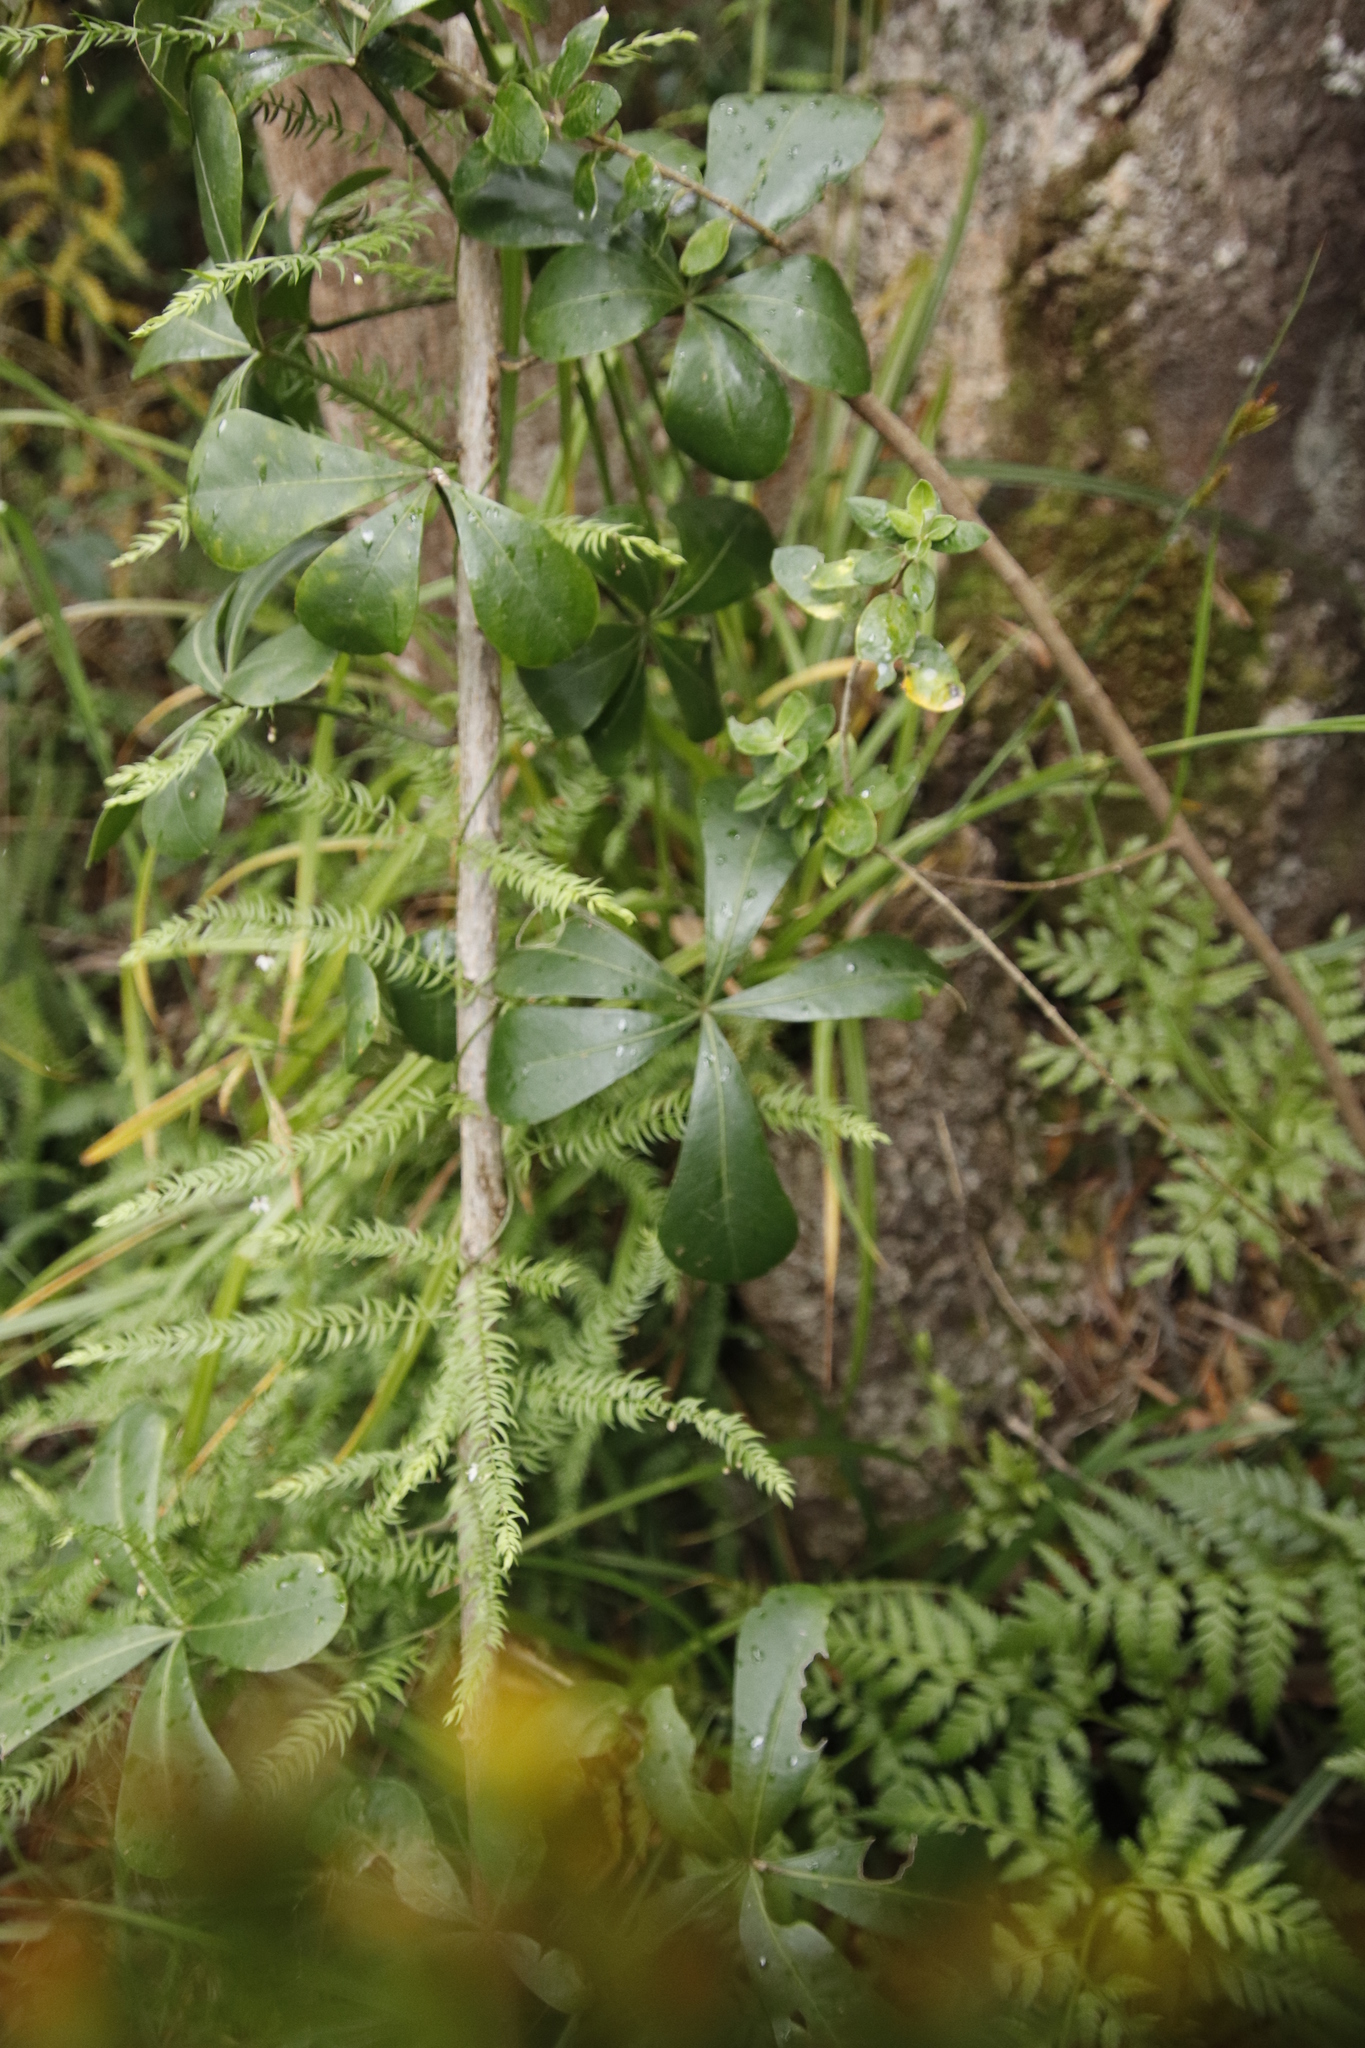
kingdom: Plantae
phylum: Tracheophyta
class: Magnoliopsida
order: Apiales
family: Araliaceae
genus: Cussonia
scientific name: Cussonia thyrsiflora
